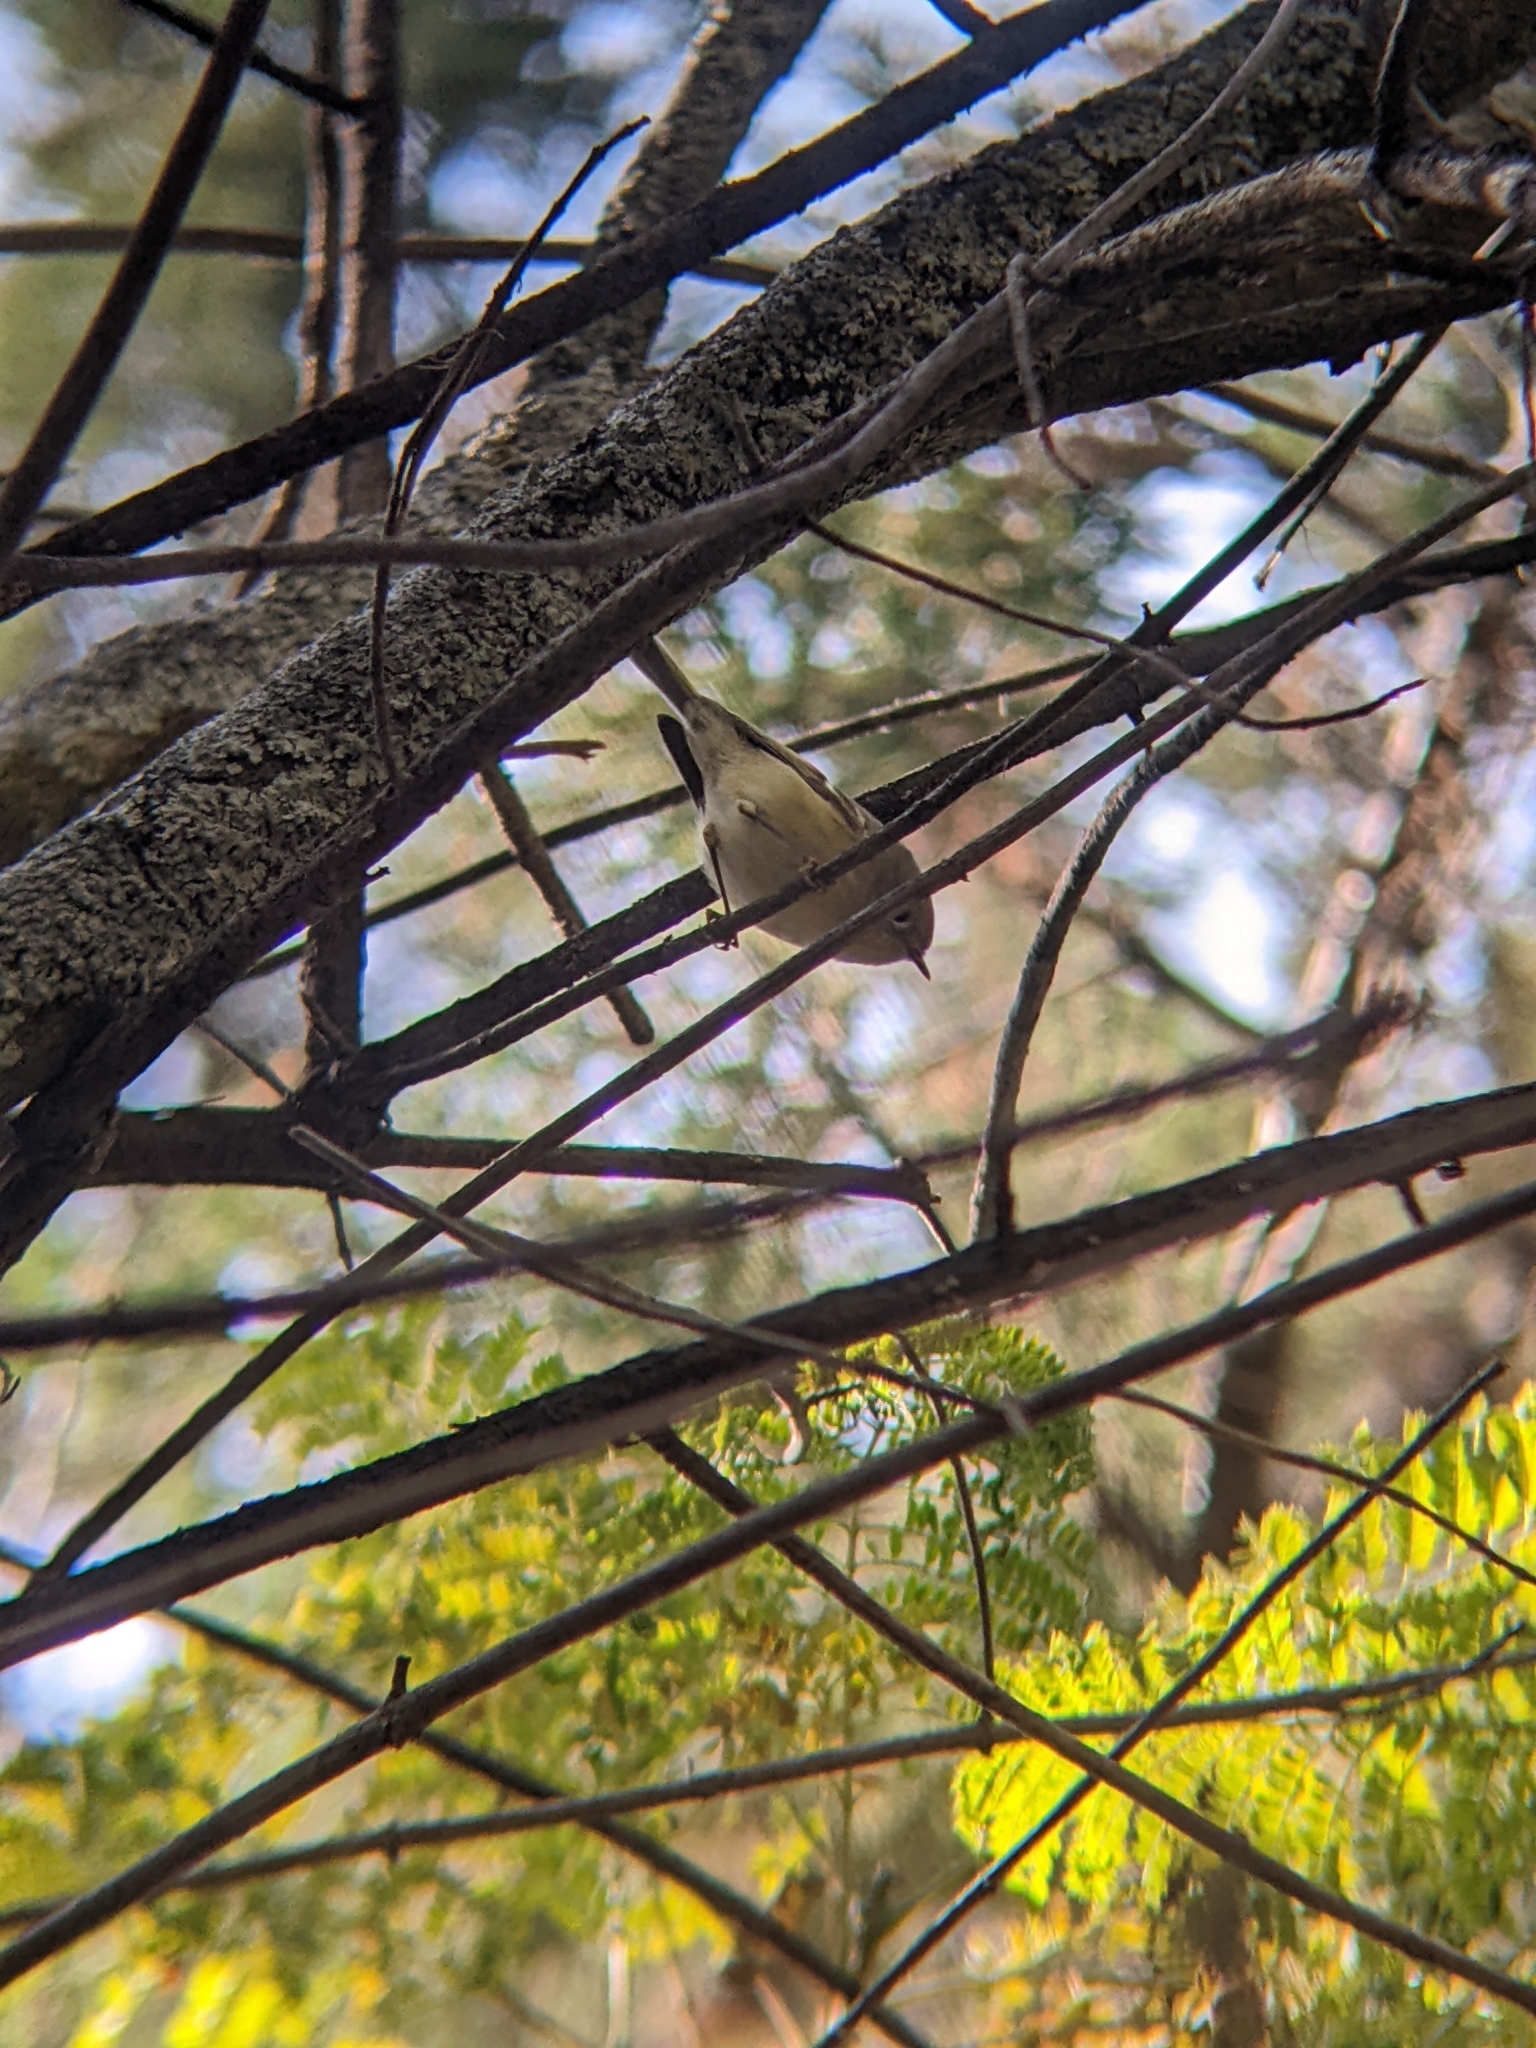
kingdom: Animalia
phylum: Chordata
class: Aves
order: Passeriformes
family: Regulidae
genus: Regulus
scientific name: Regulus calendula
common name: Ruby-crowned kinglet
